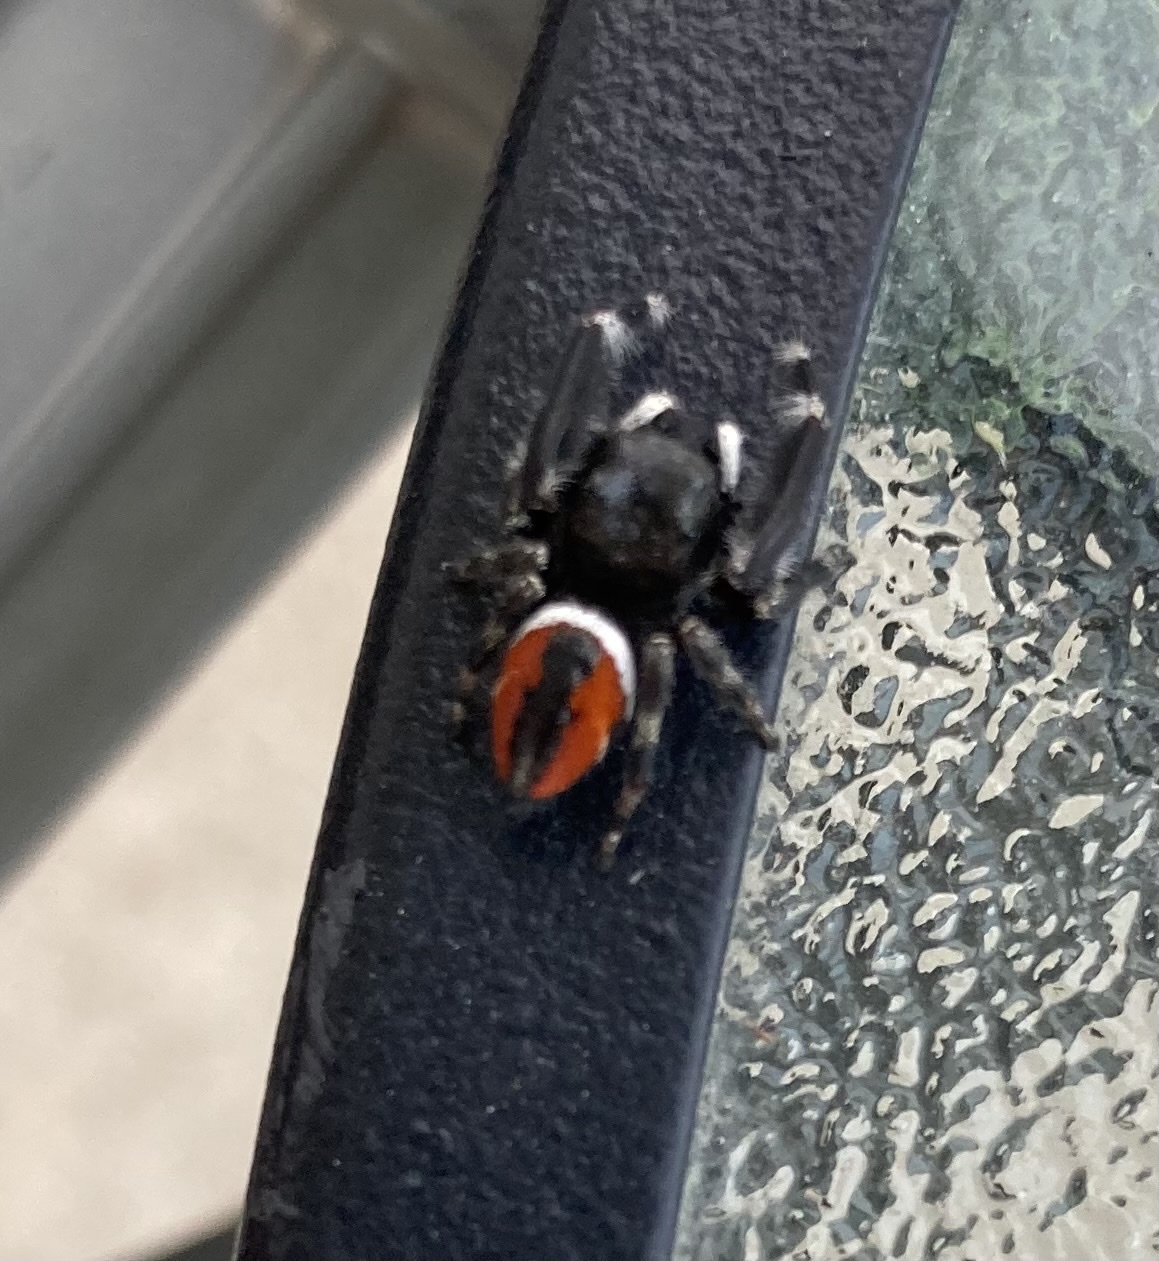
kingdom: Animalia
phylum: Arthropoda
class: Arachnida
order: Araneae
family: Salticidae
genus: Phidippus
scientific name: Phidippus clarus
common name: Brilliant jumping spider
